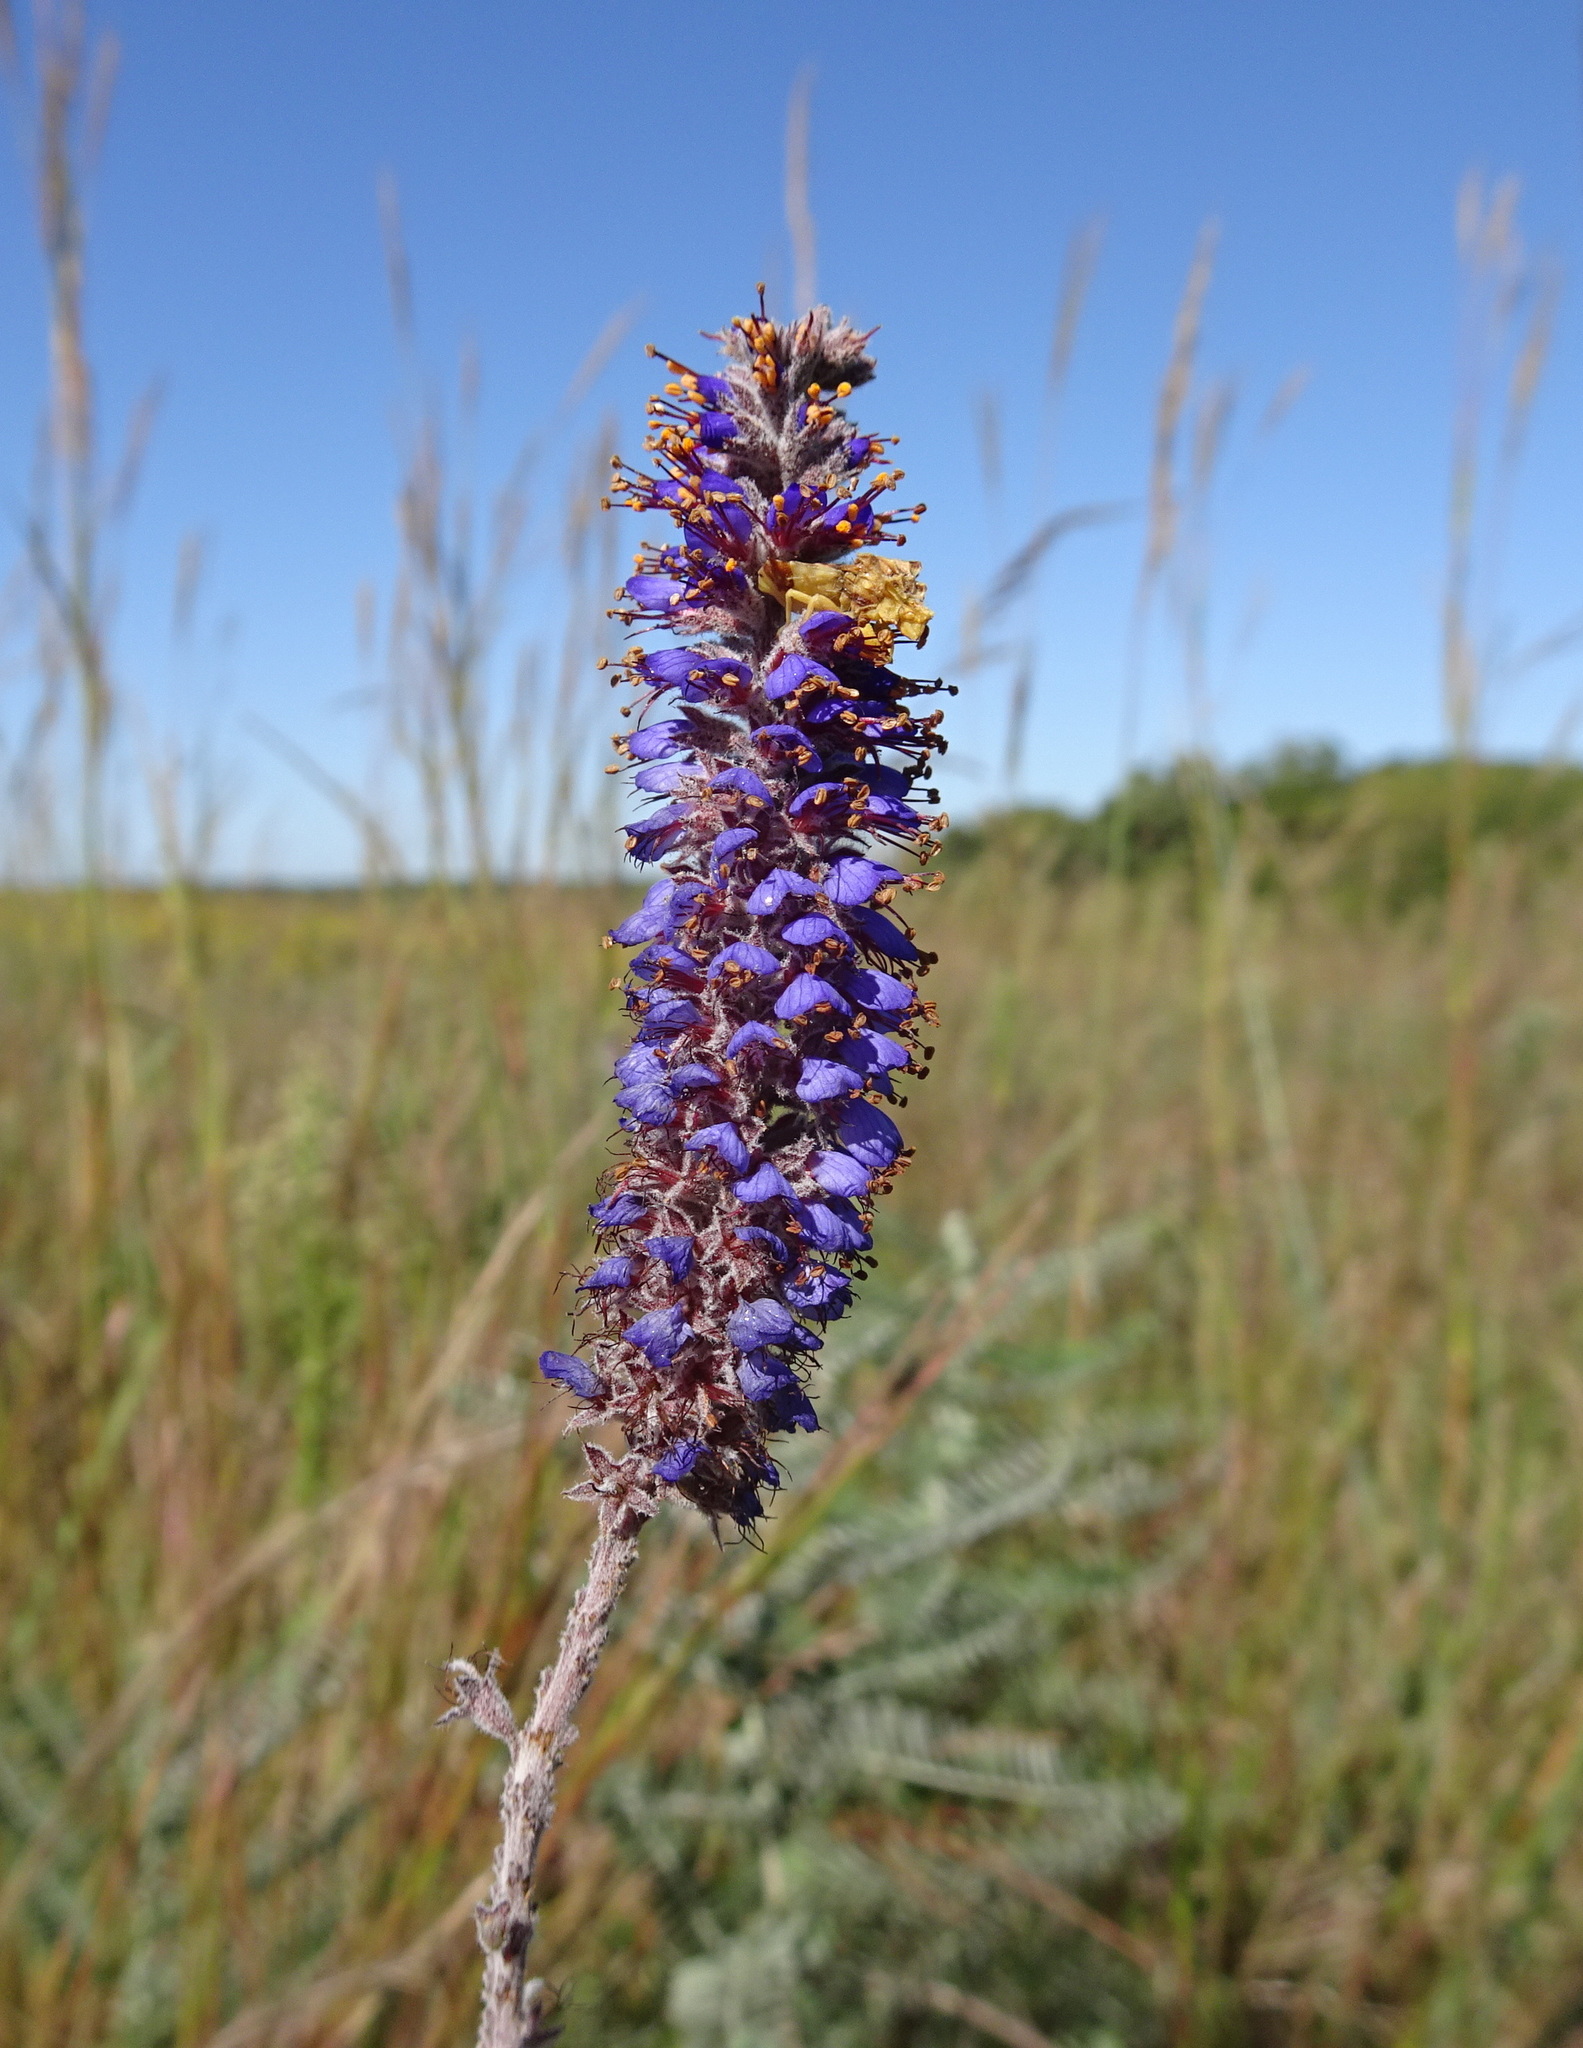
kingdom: Plantae
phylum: Tracheophyta
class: Magnoliopsida
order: Fabales
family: Fabaceae
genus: Amorpha
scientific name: Amorpha canescens
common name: Leadplant
